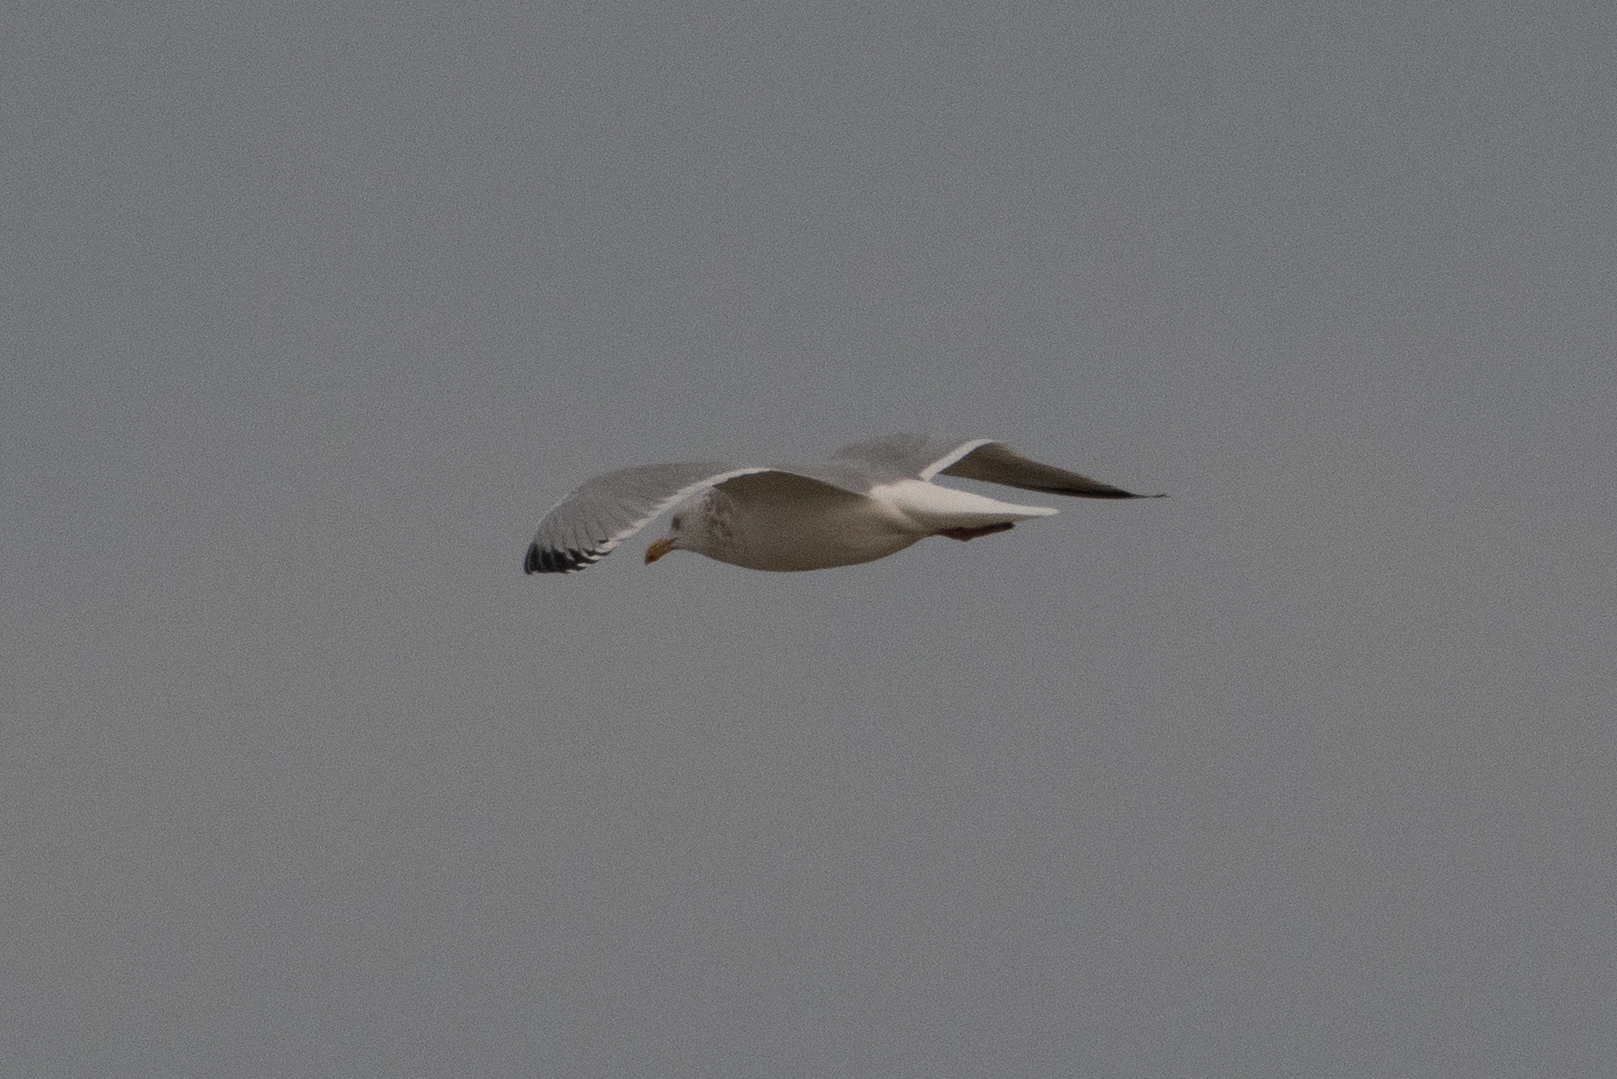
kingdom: Animalia
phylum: Chordata
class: Aves
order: Charadriiformes
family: Laridae
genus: Larus
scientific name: Larus argentatus
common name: Herring gull
